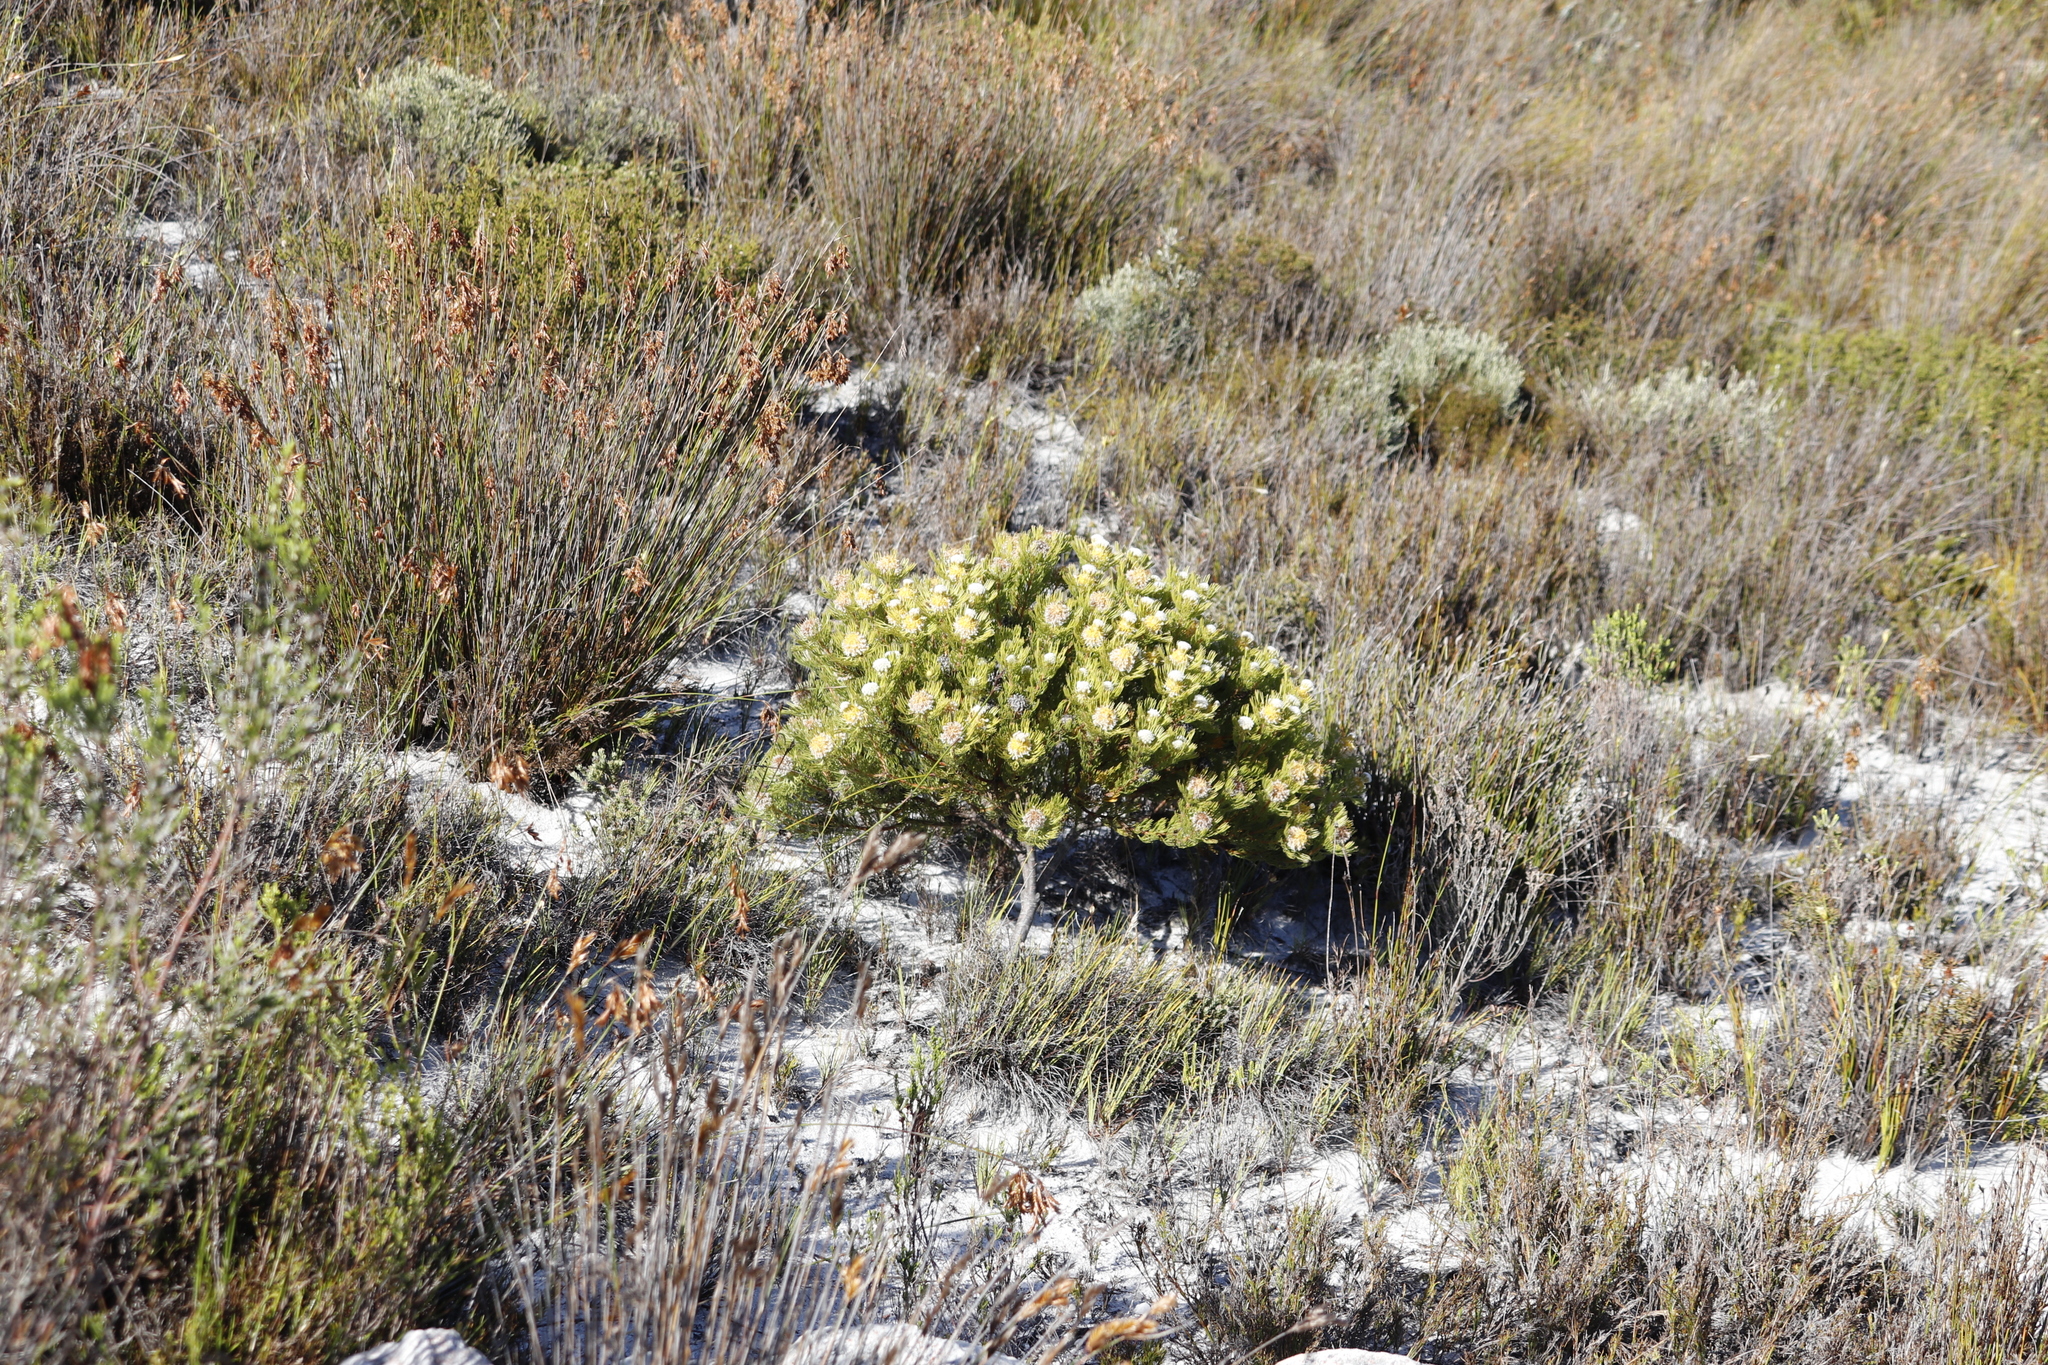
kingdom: Plantae
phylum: Tracheophyta
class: Magnoliopsida
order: Proteales
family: Proteaceae
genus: Serruria
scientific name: Serruria villosa
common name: Golden spiderhead
